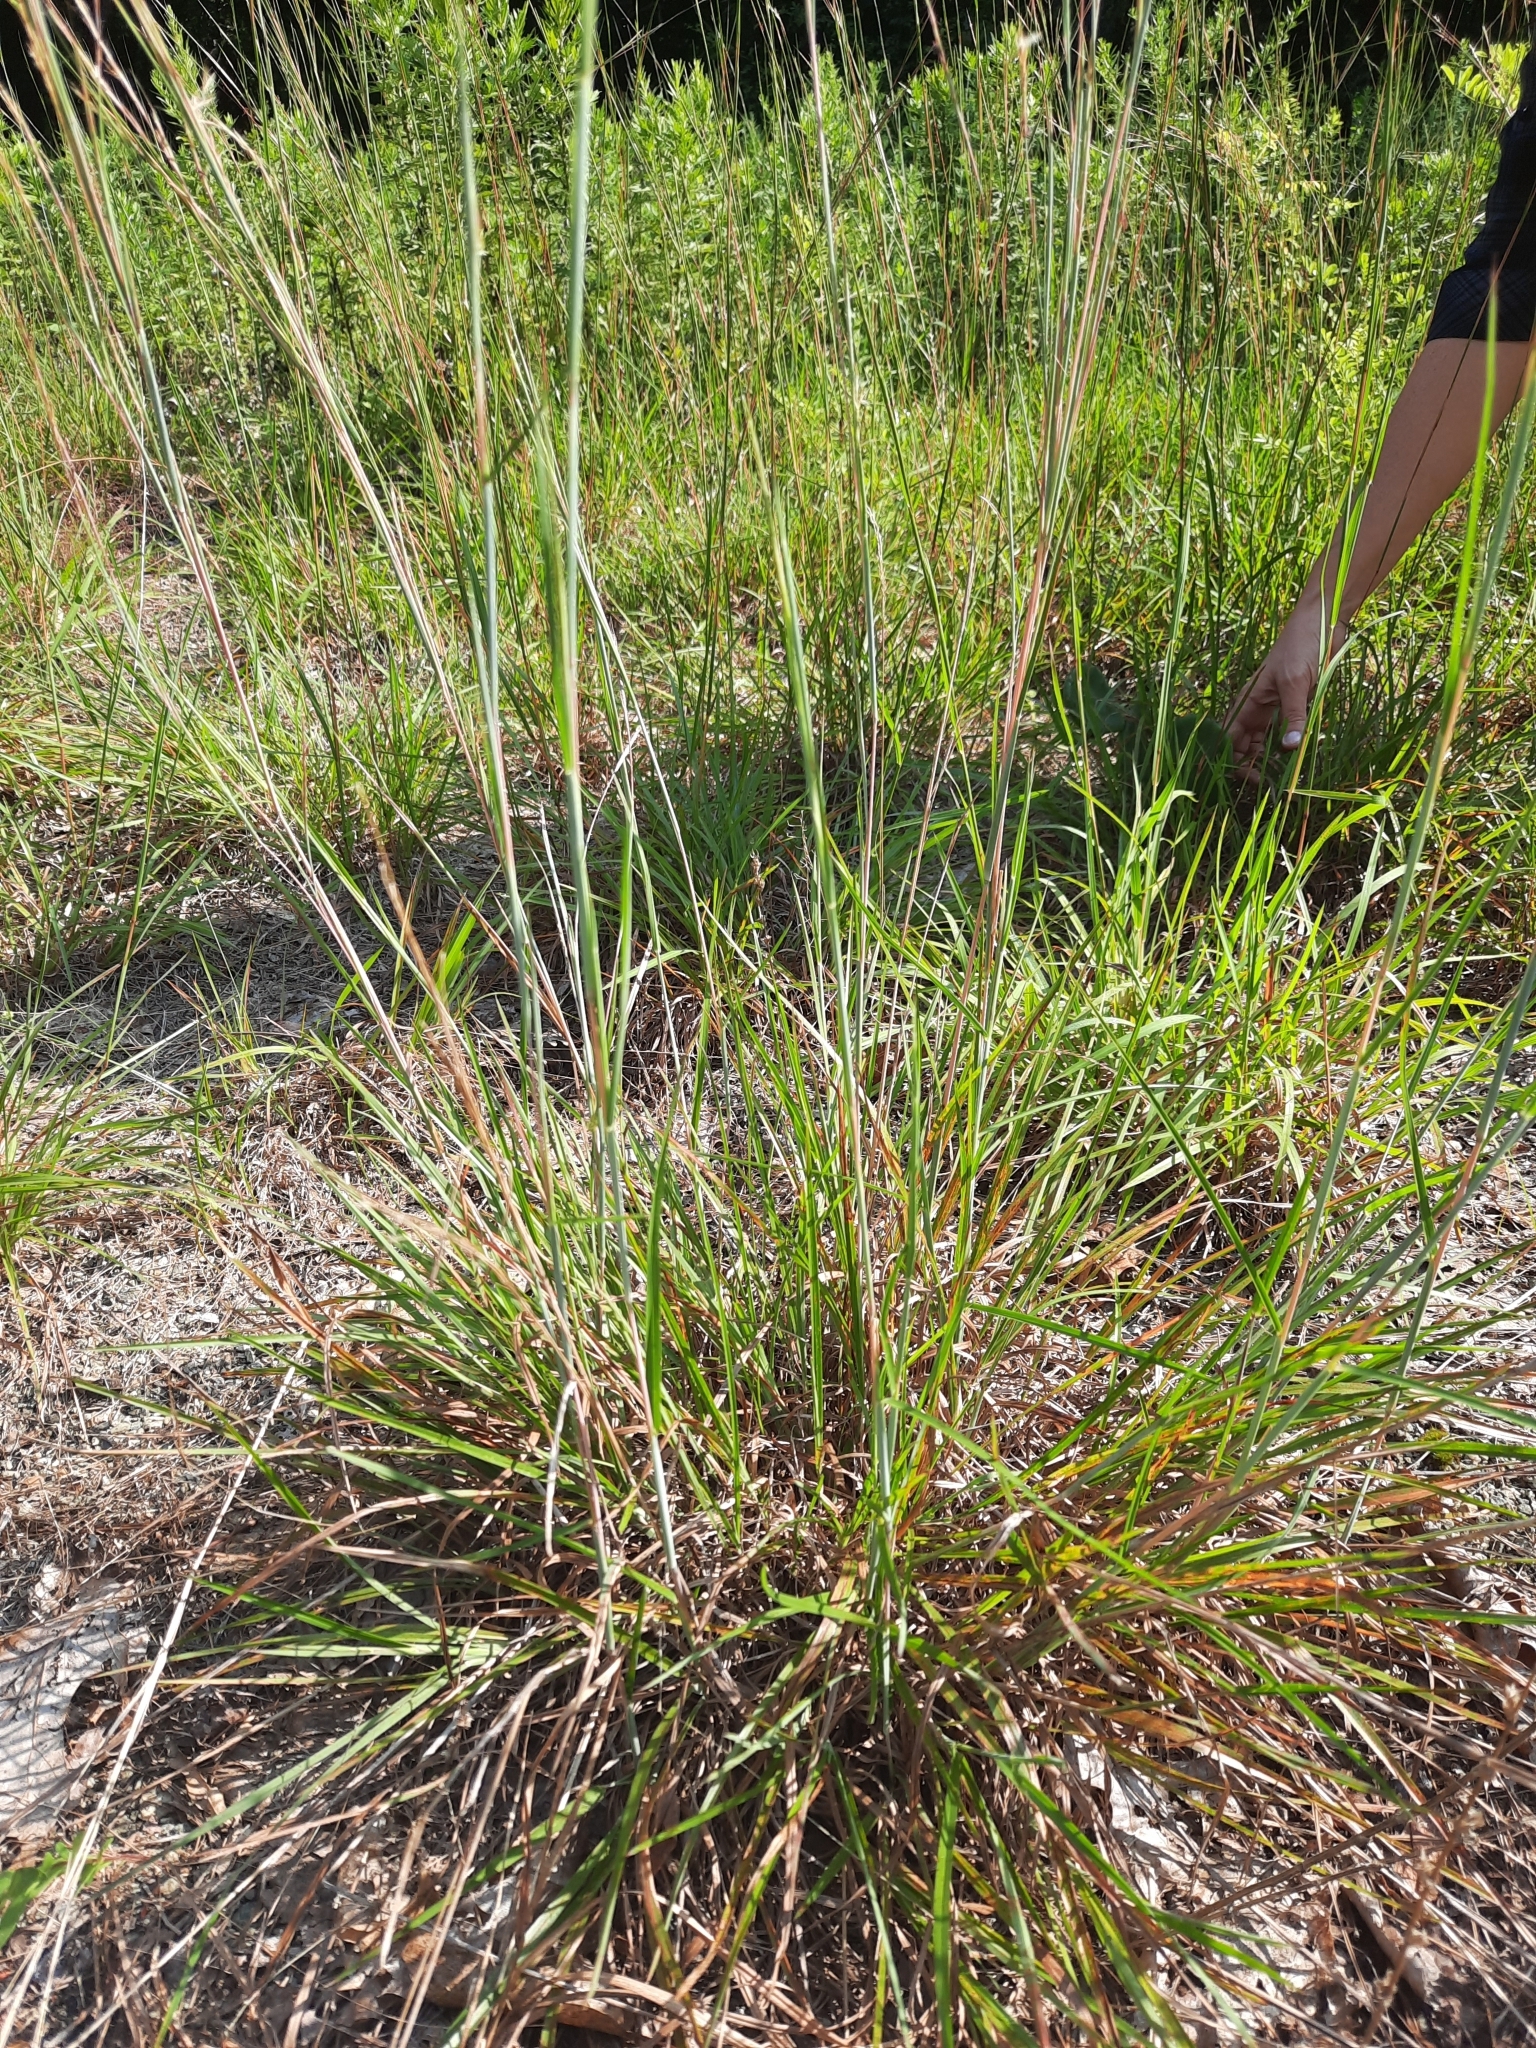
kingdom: Plantae
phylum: Tracheophyta
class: Liliopsida
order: Poales
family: Poaceae
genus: Schizachyrium
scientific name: Schizachyrium scoparium
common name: Little bluestem
